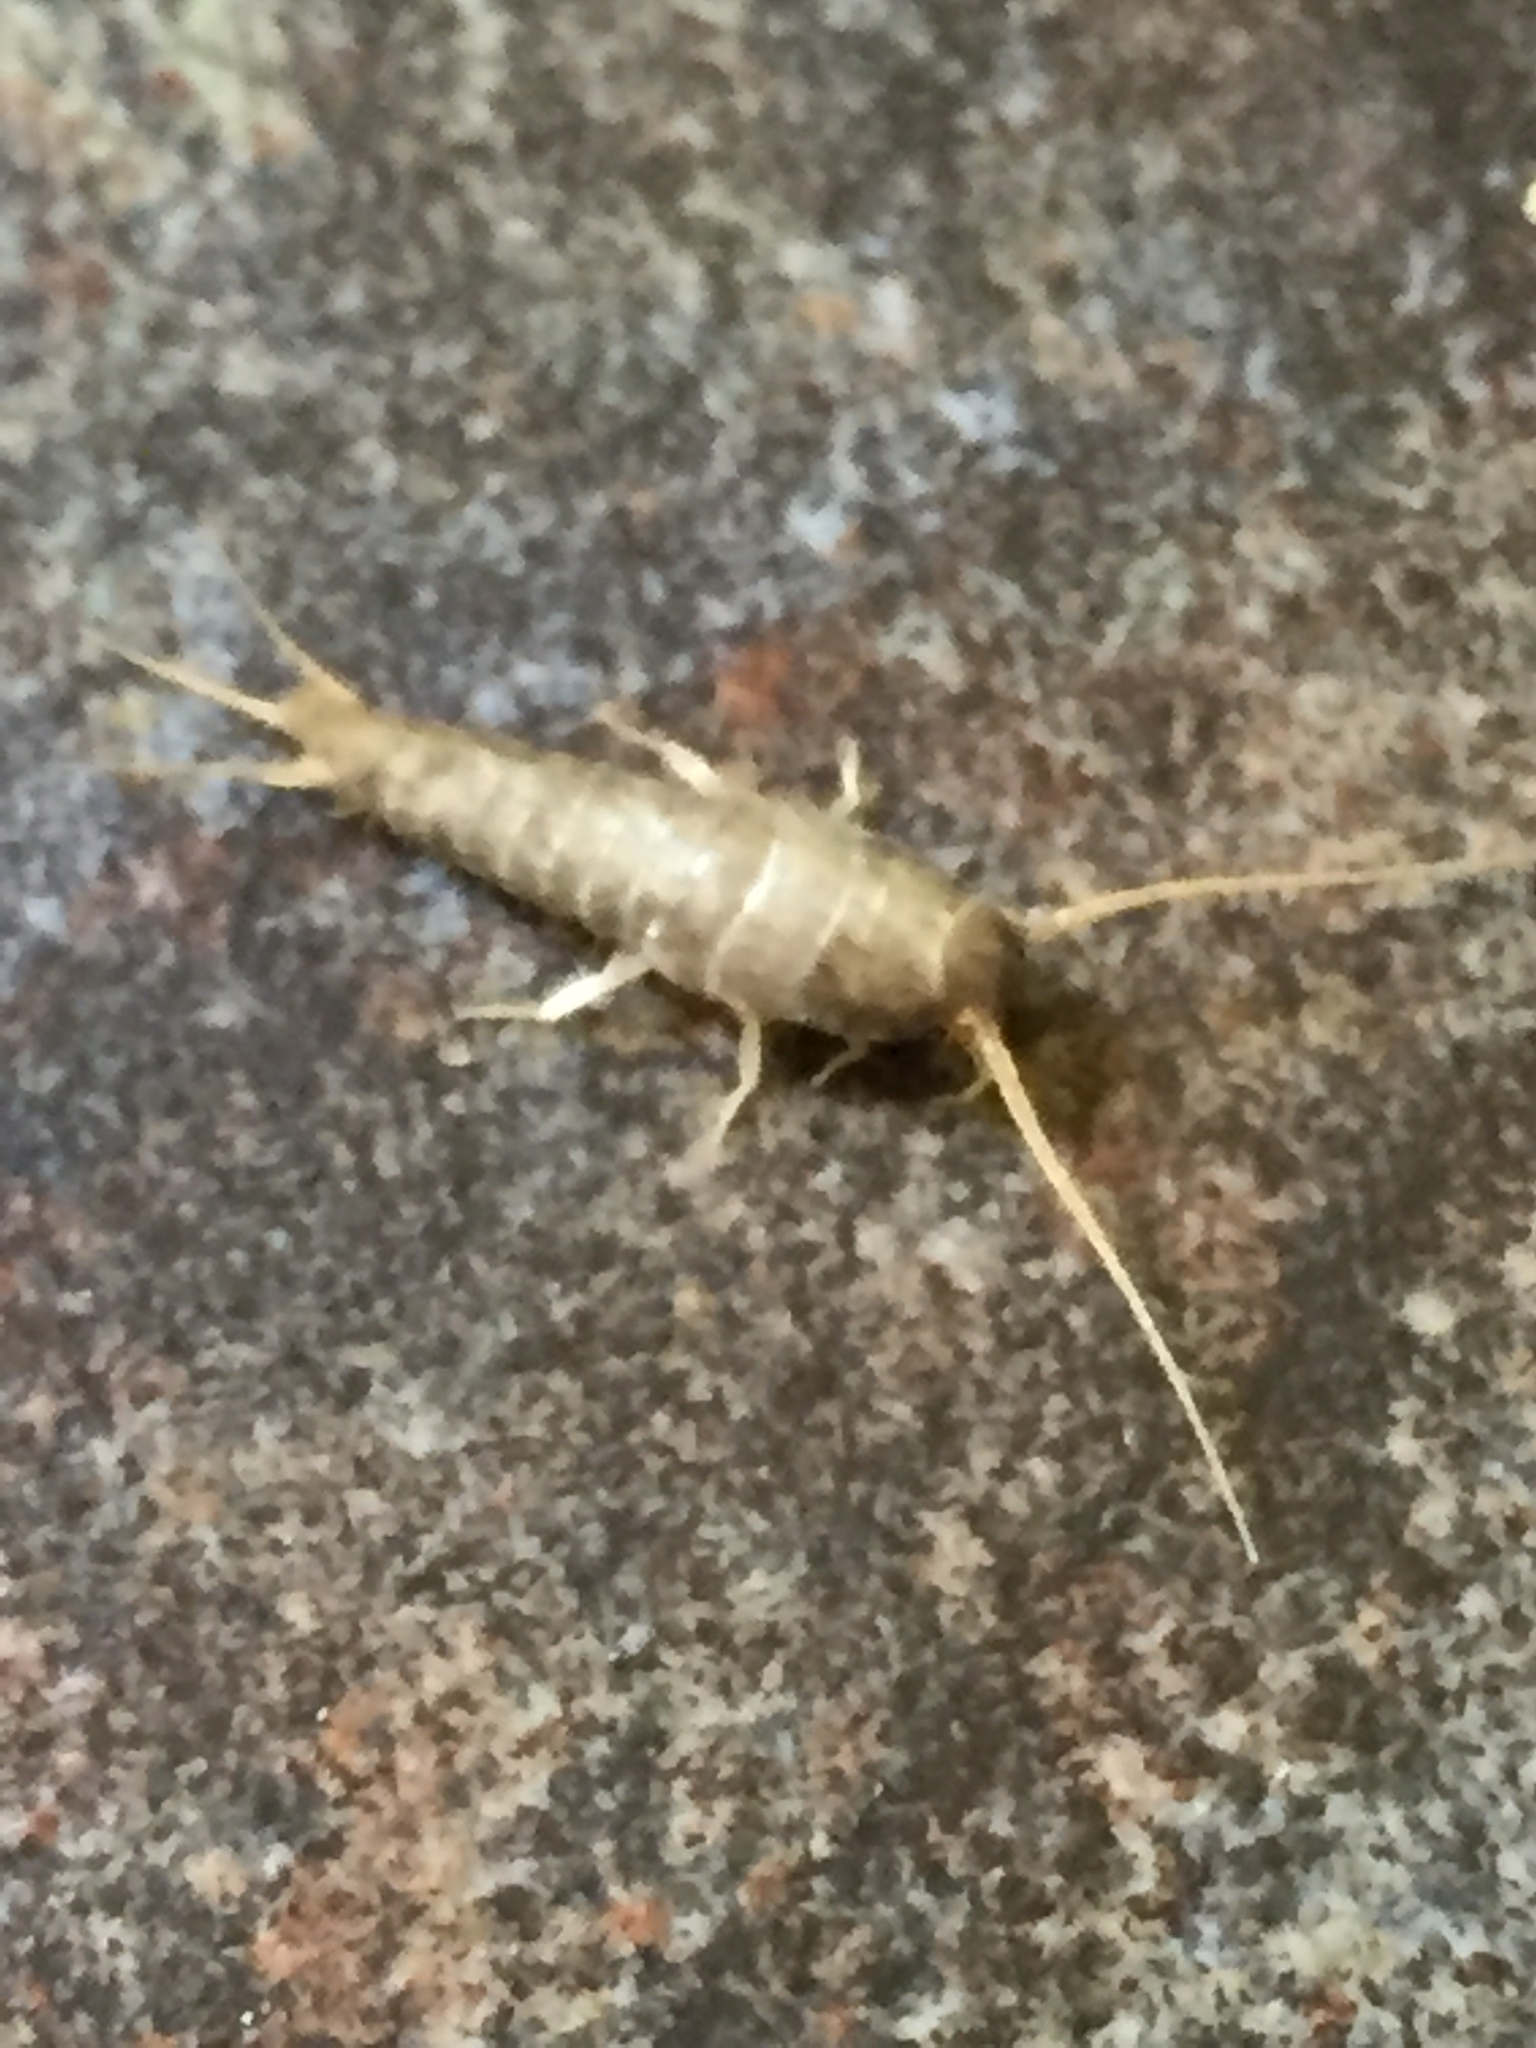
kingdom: Animalia
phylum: Arthropoda
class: Insecta
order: Zygentoma
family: Lepismatidae
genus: Lepisma
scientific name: Lepisma saccharinum
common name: Silverfish
